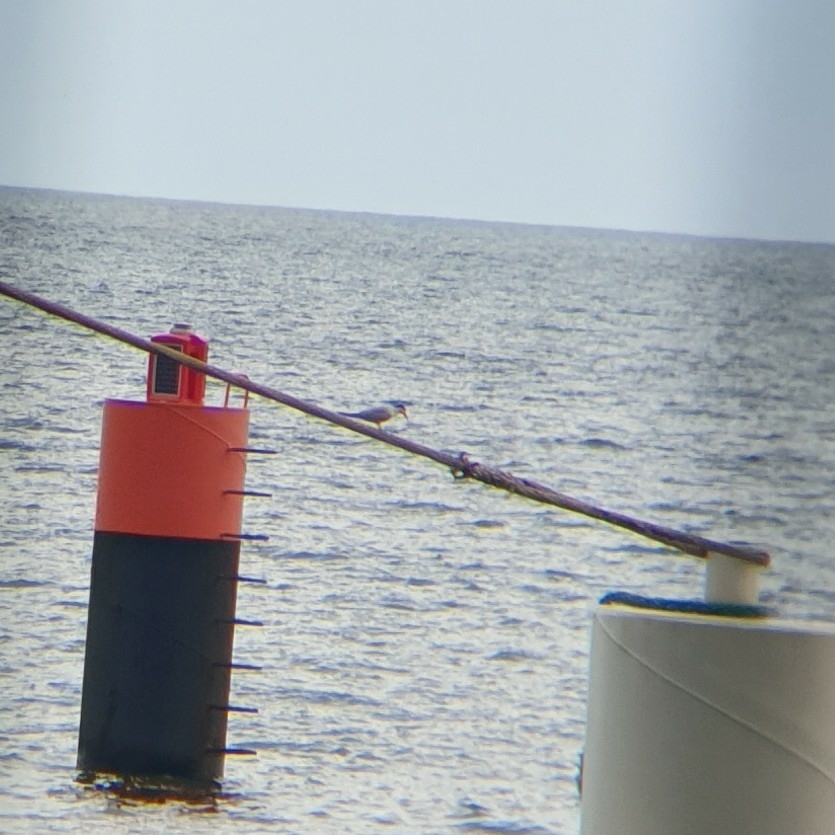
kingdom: Animalia
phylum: Chordata
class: Aves
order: Charadriiformes
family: Laridae
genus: Sterna
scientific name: Sterna hirundo
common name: Common tern
